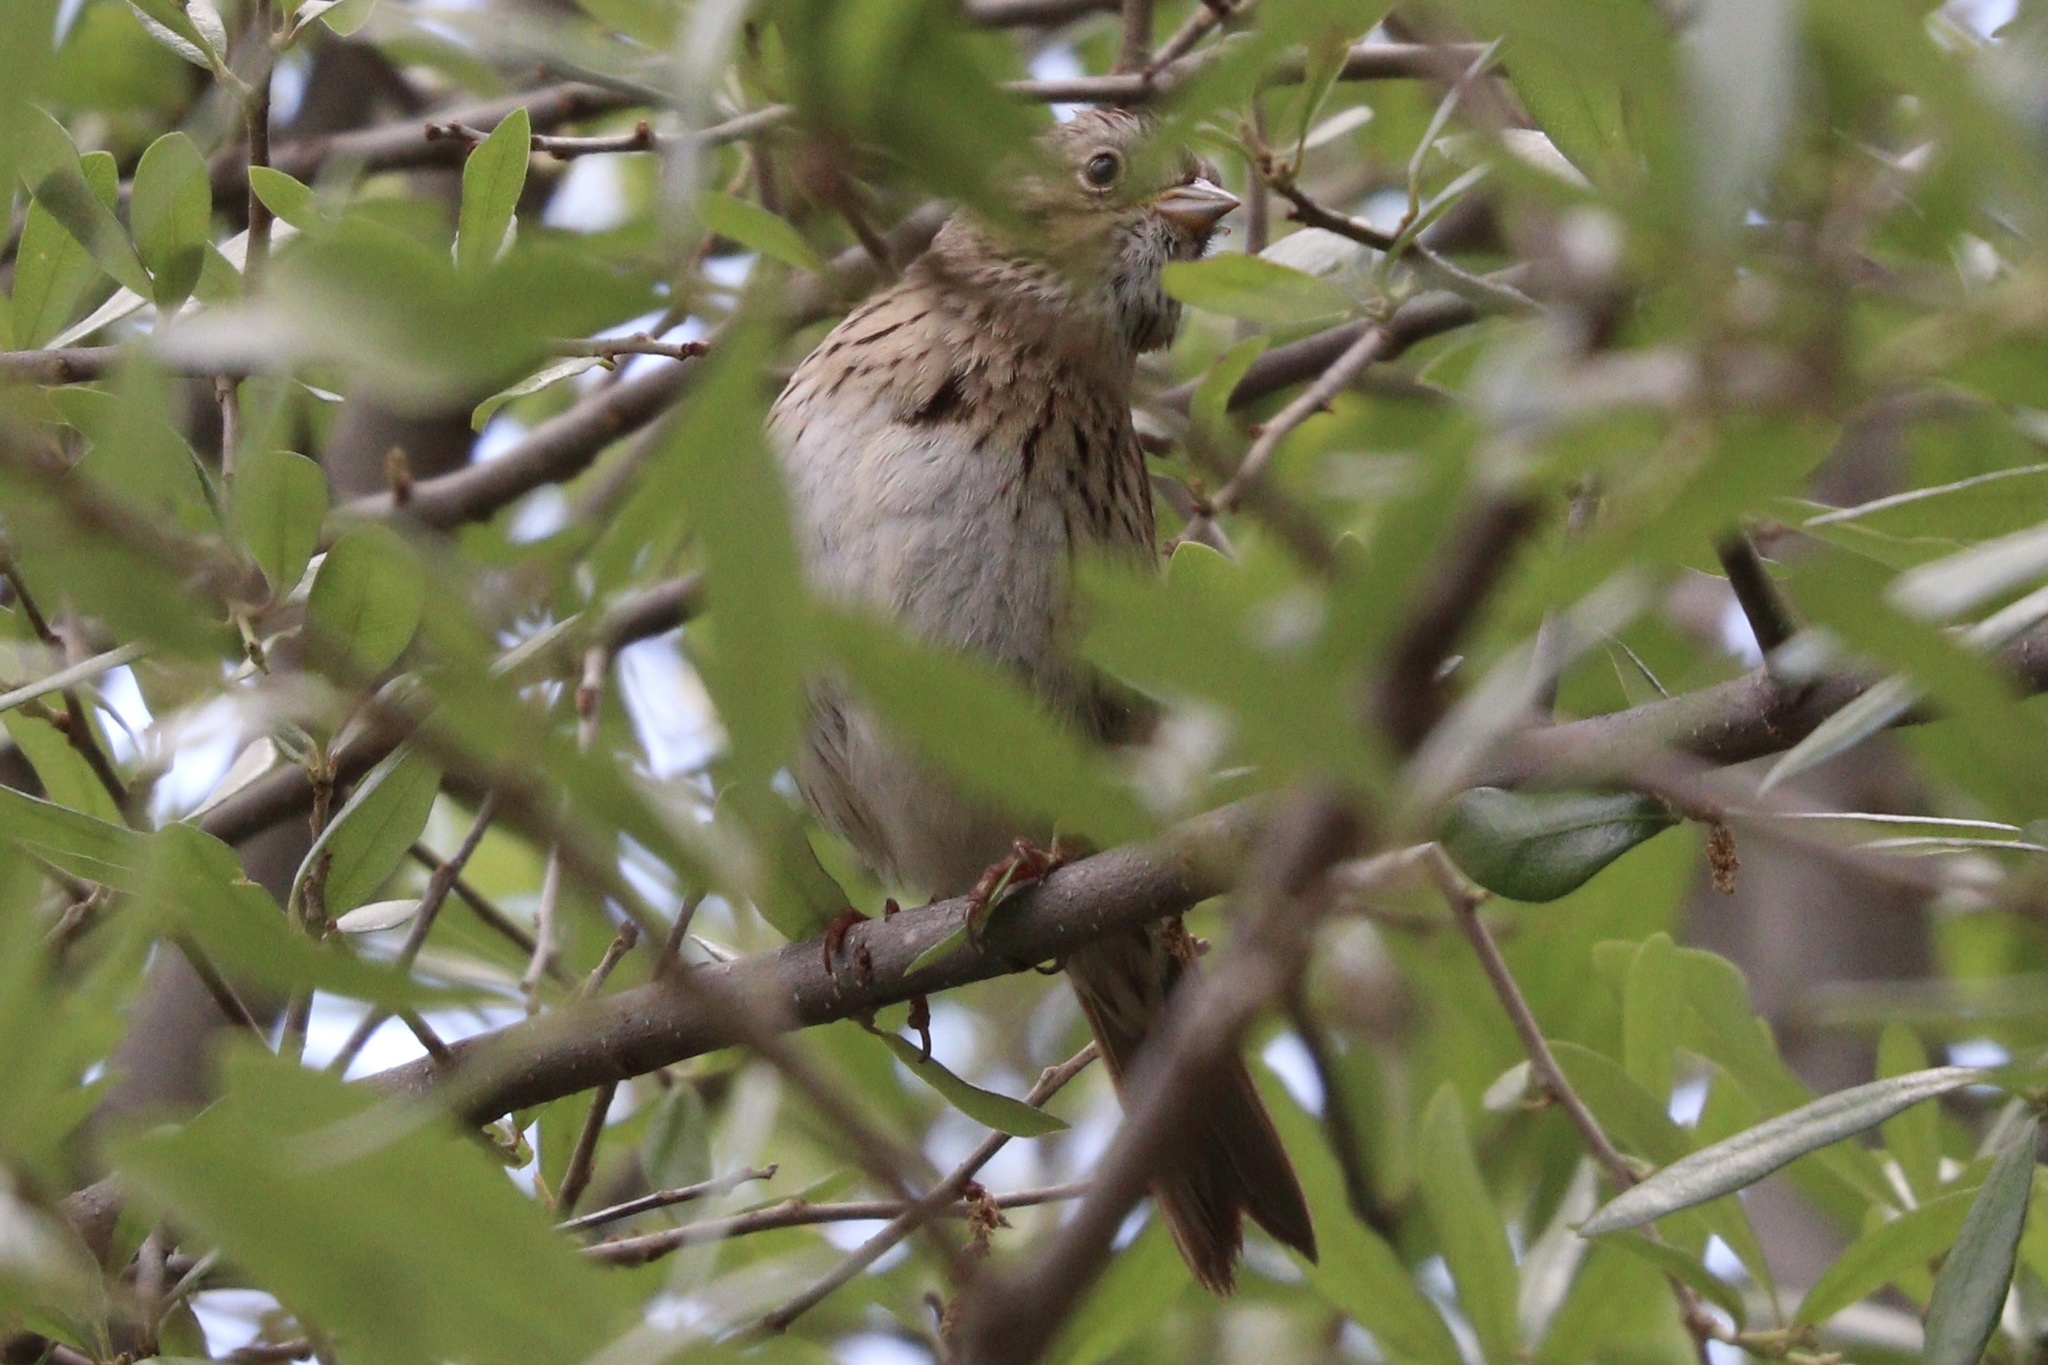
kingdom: Animalia
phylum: Chordata
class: Aves
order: Passeriformes
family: Passerellidae
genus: Melospiza
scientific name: Melospiza lincolnii
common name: Lincoln's sparrow
